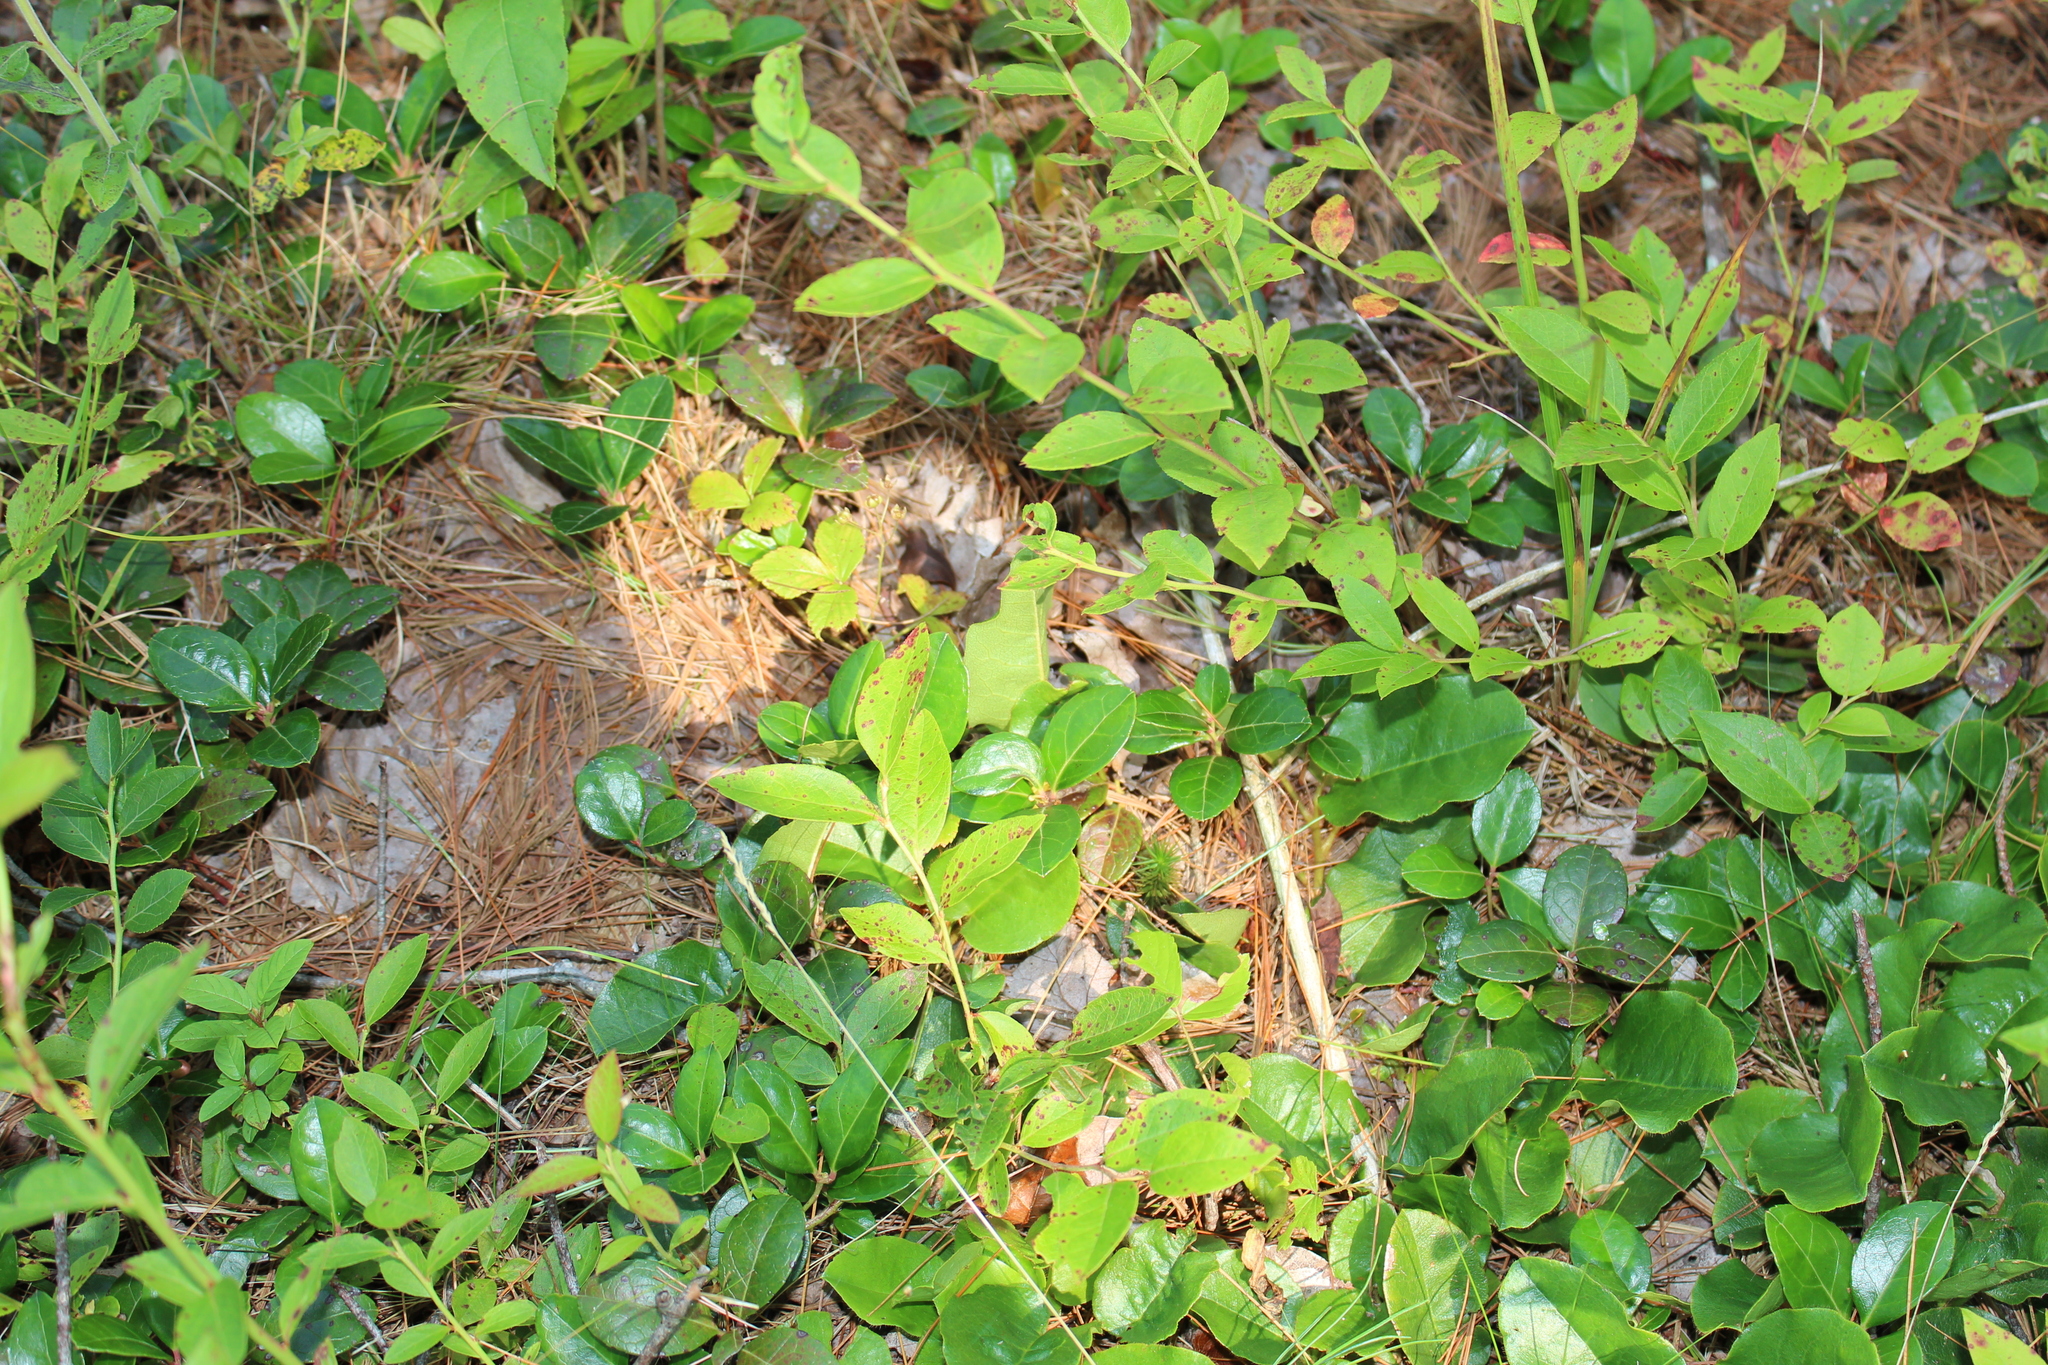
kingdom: Plantae
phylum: Tracheophyta
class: Magnoliopsida
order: Ericales
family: Ericaceae
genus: Gaultheria
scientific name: Gaultheria procumbens
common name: Checkerberry
